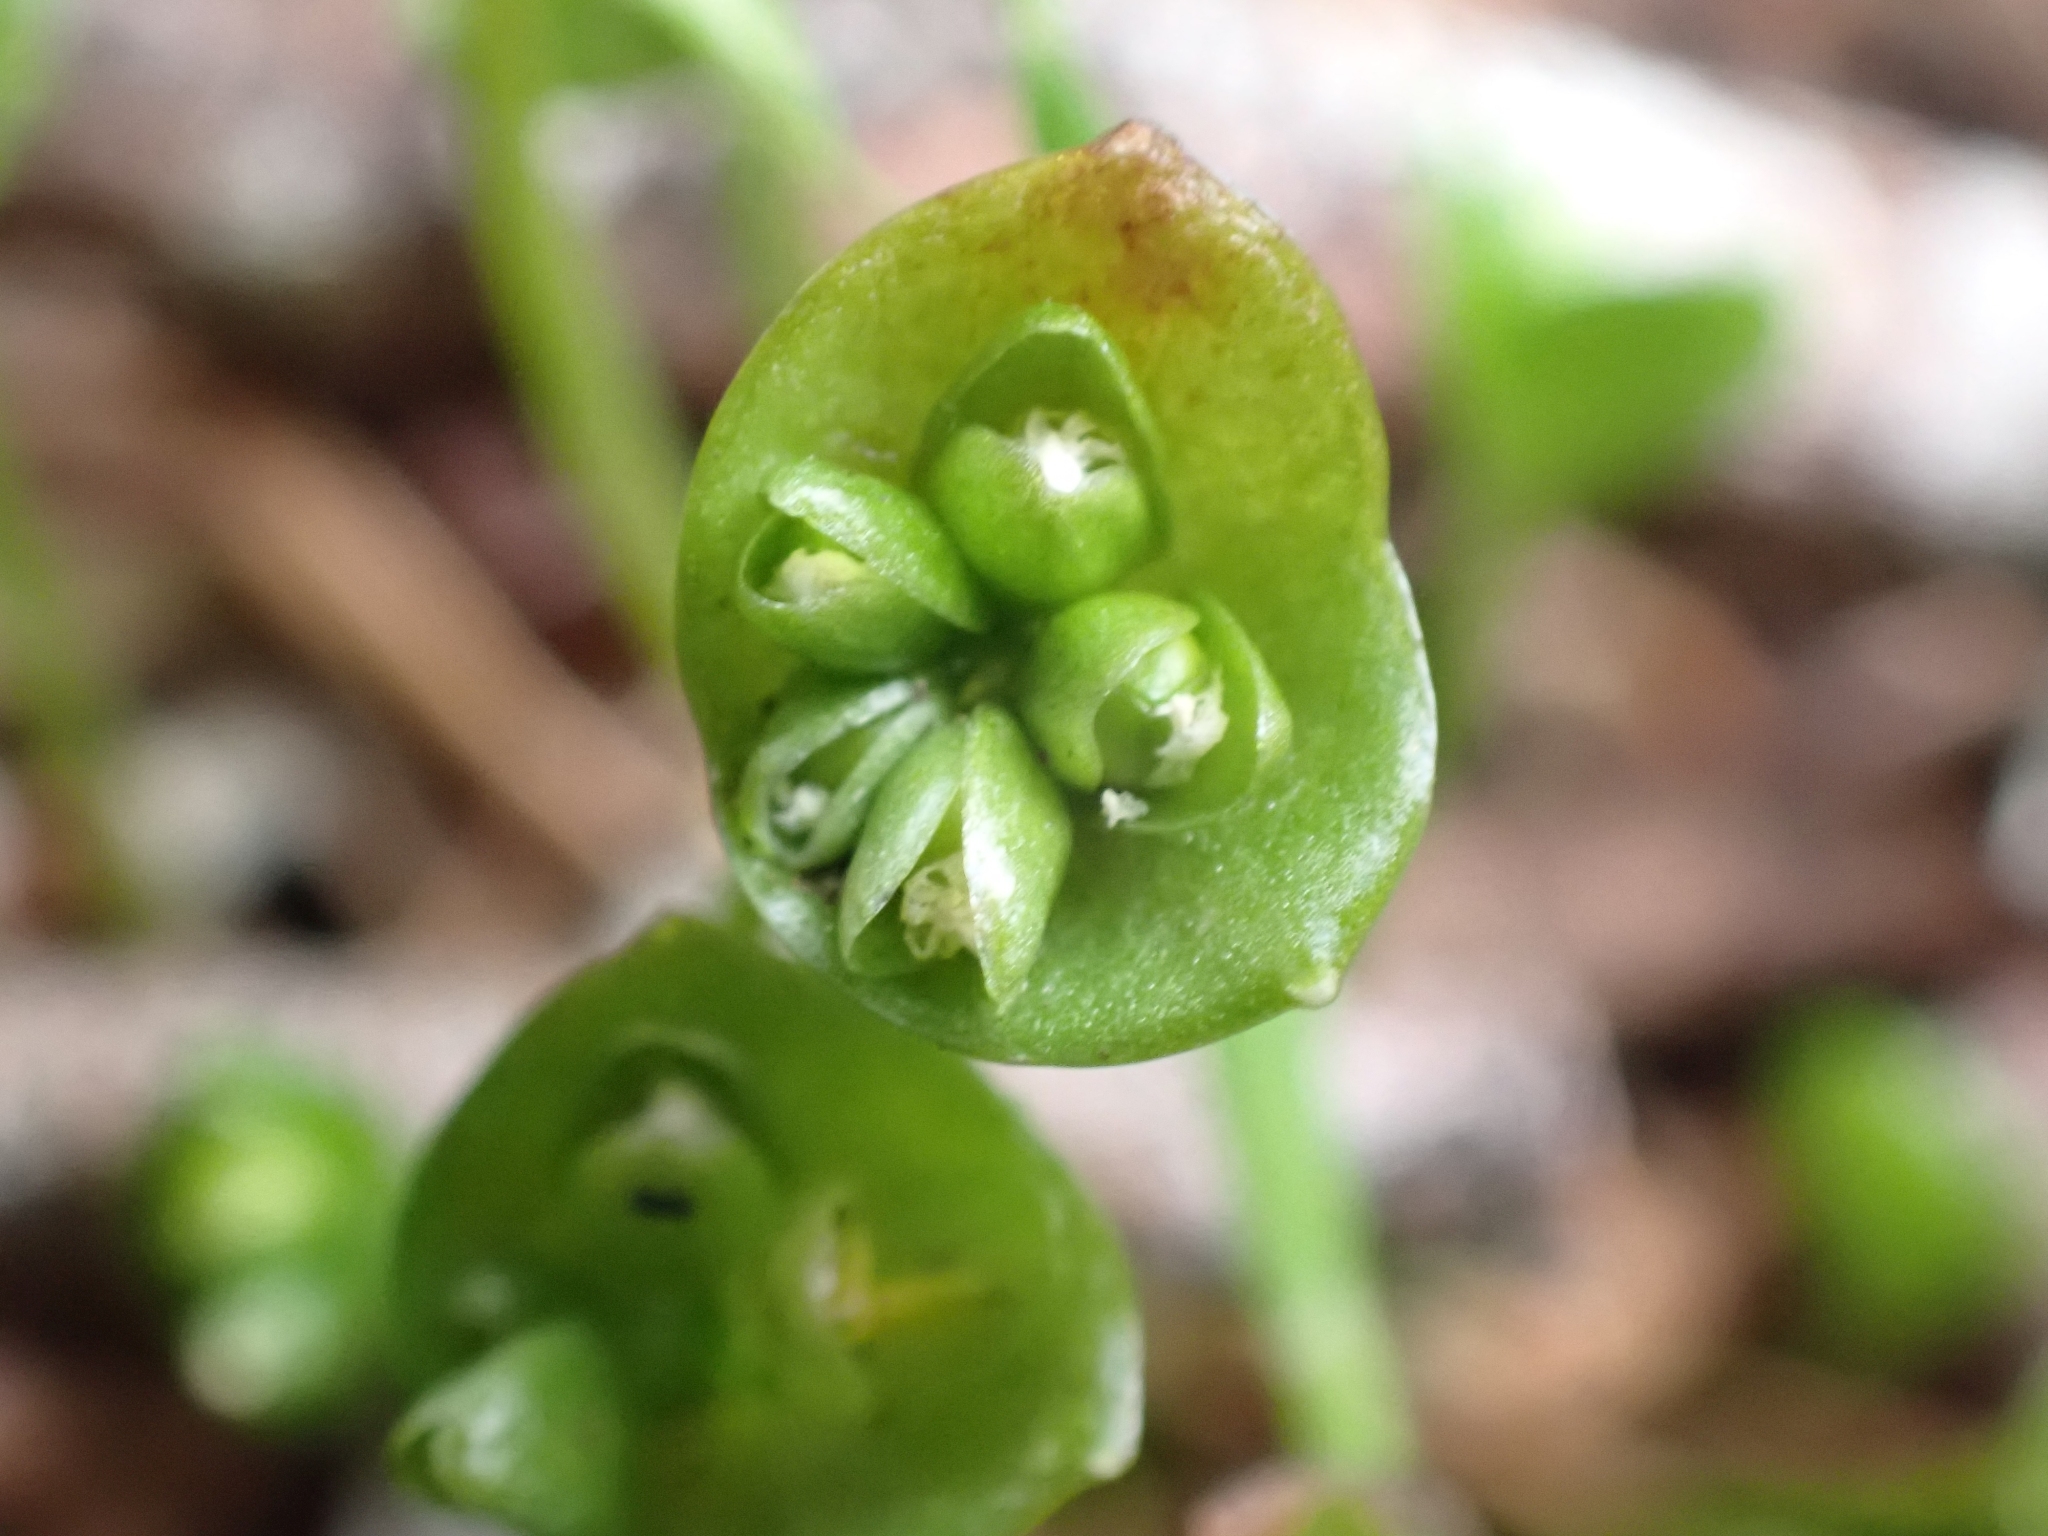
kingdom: Plantae
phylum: Tracheophyta
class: Magnoliopsida
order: Caryophyllales
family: Montiaceae
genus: Claytonia
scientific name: Claytonia perfoliata
